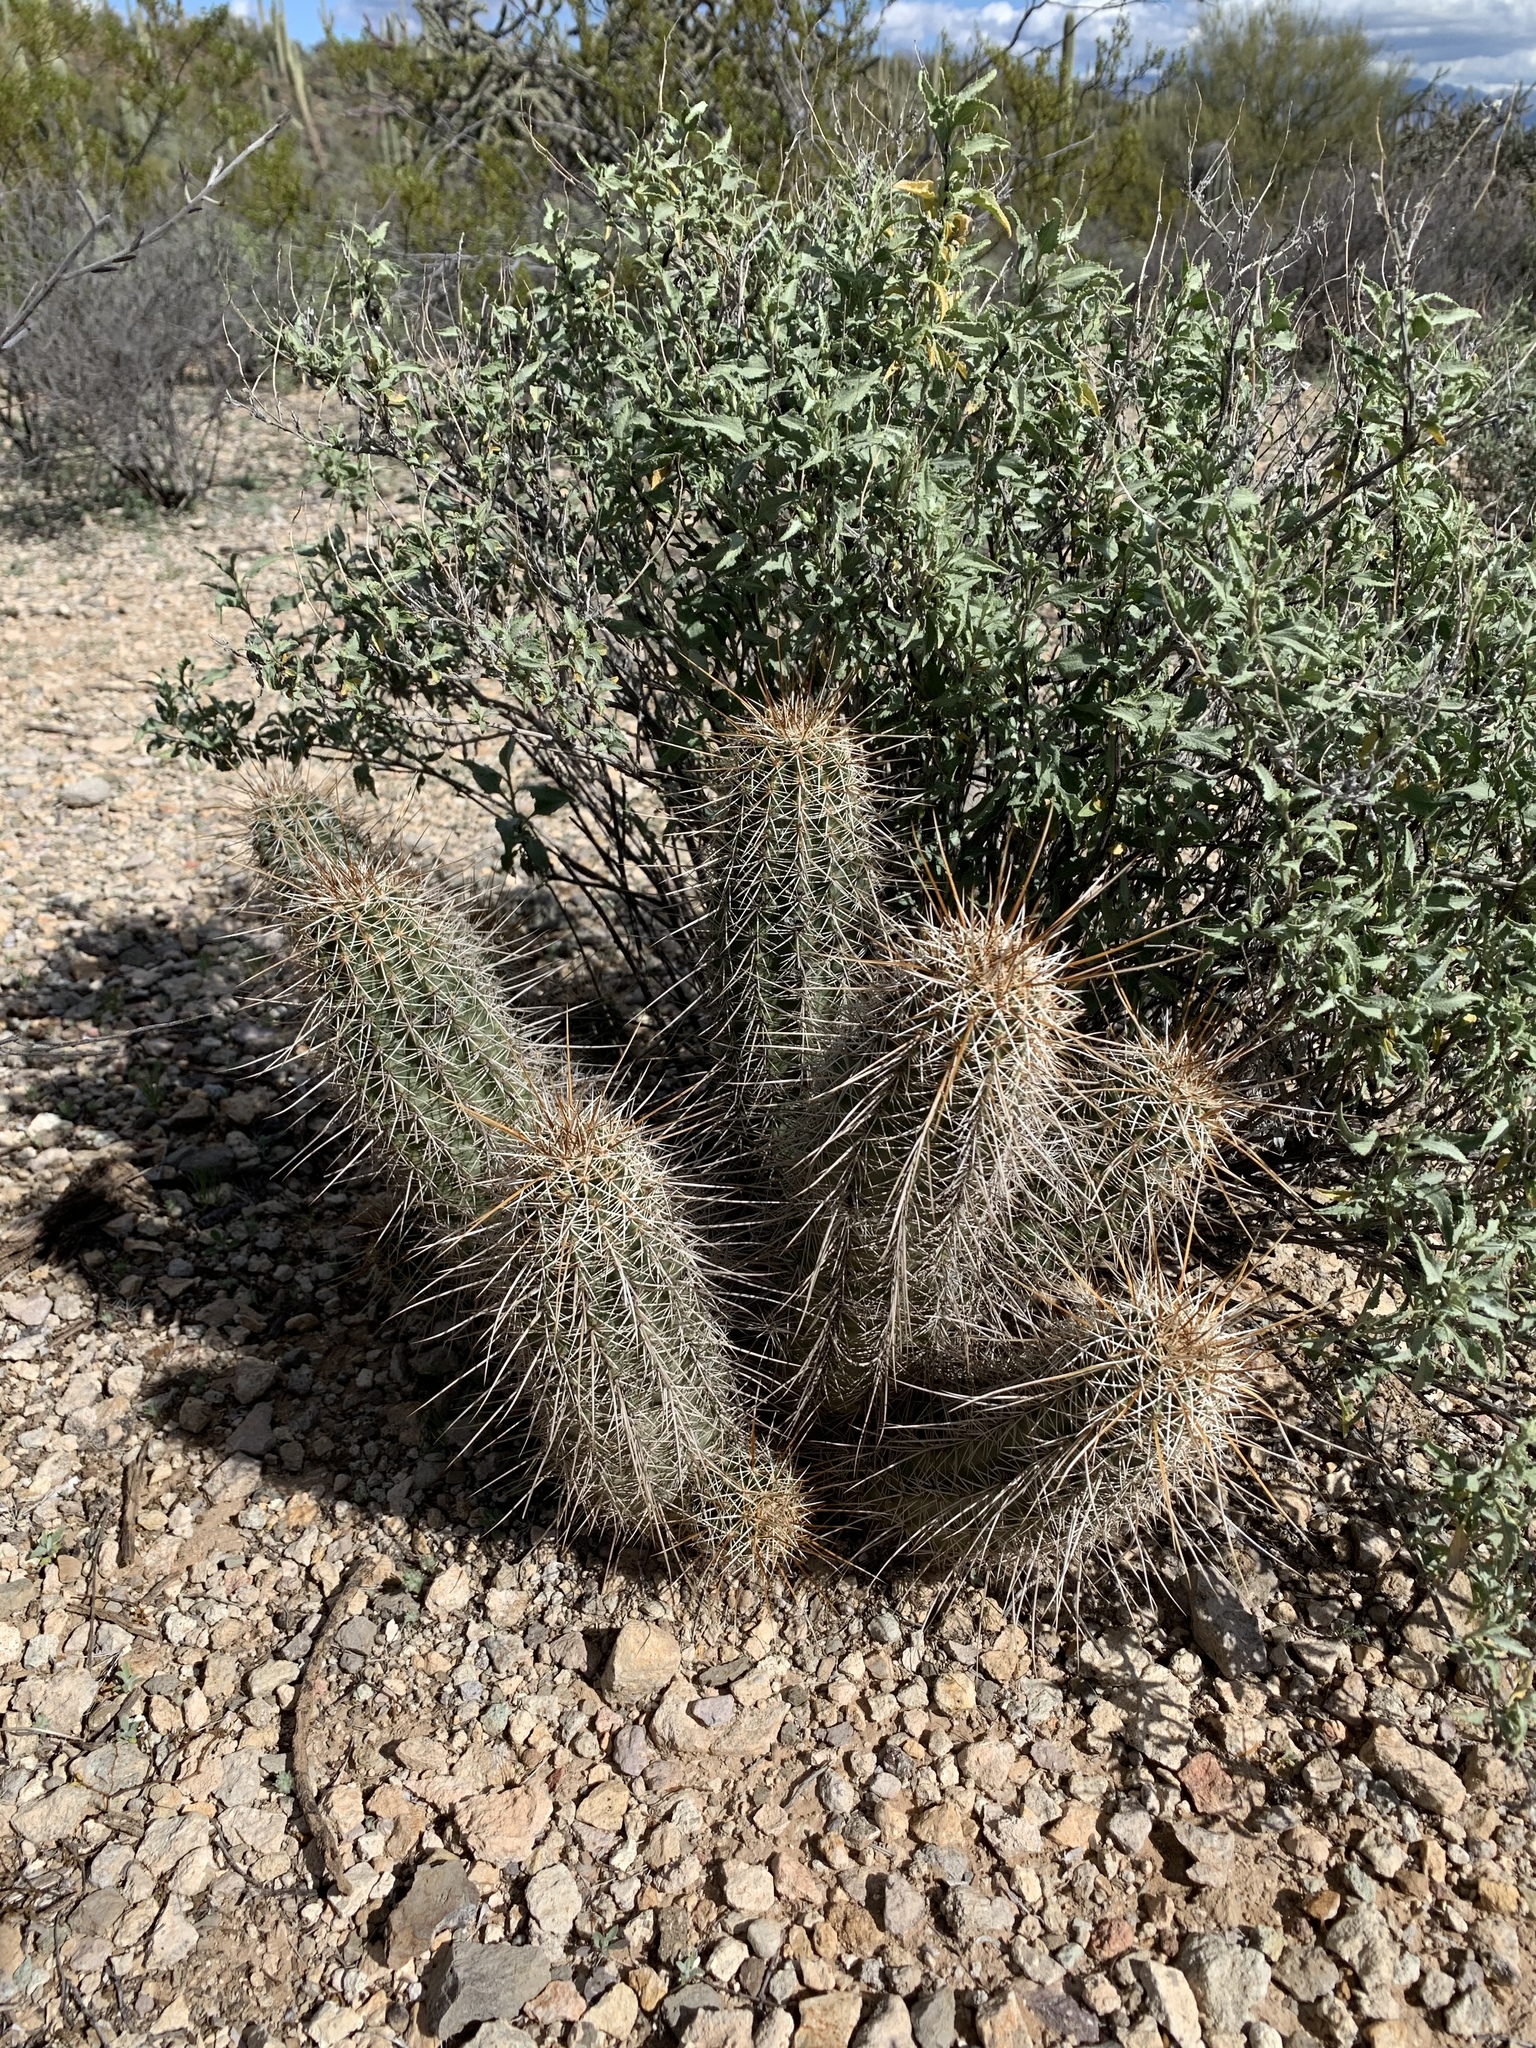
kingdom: Plantae
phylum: Tracheophyta
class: Magnoliopsida
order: Caryophyllales
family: Cactaceae
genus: Echinocereus
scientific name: Echinocereus fasciculatus
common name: Bundle hedgehog
